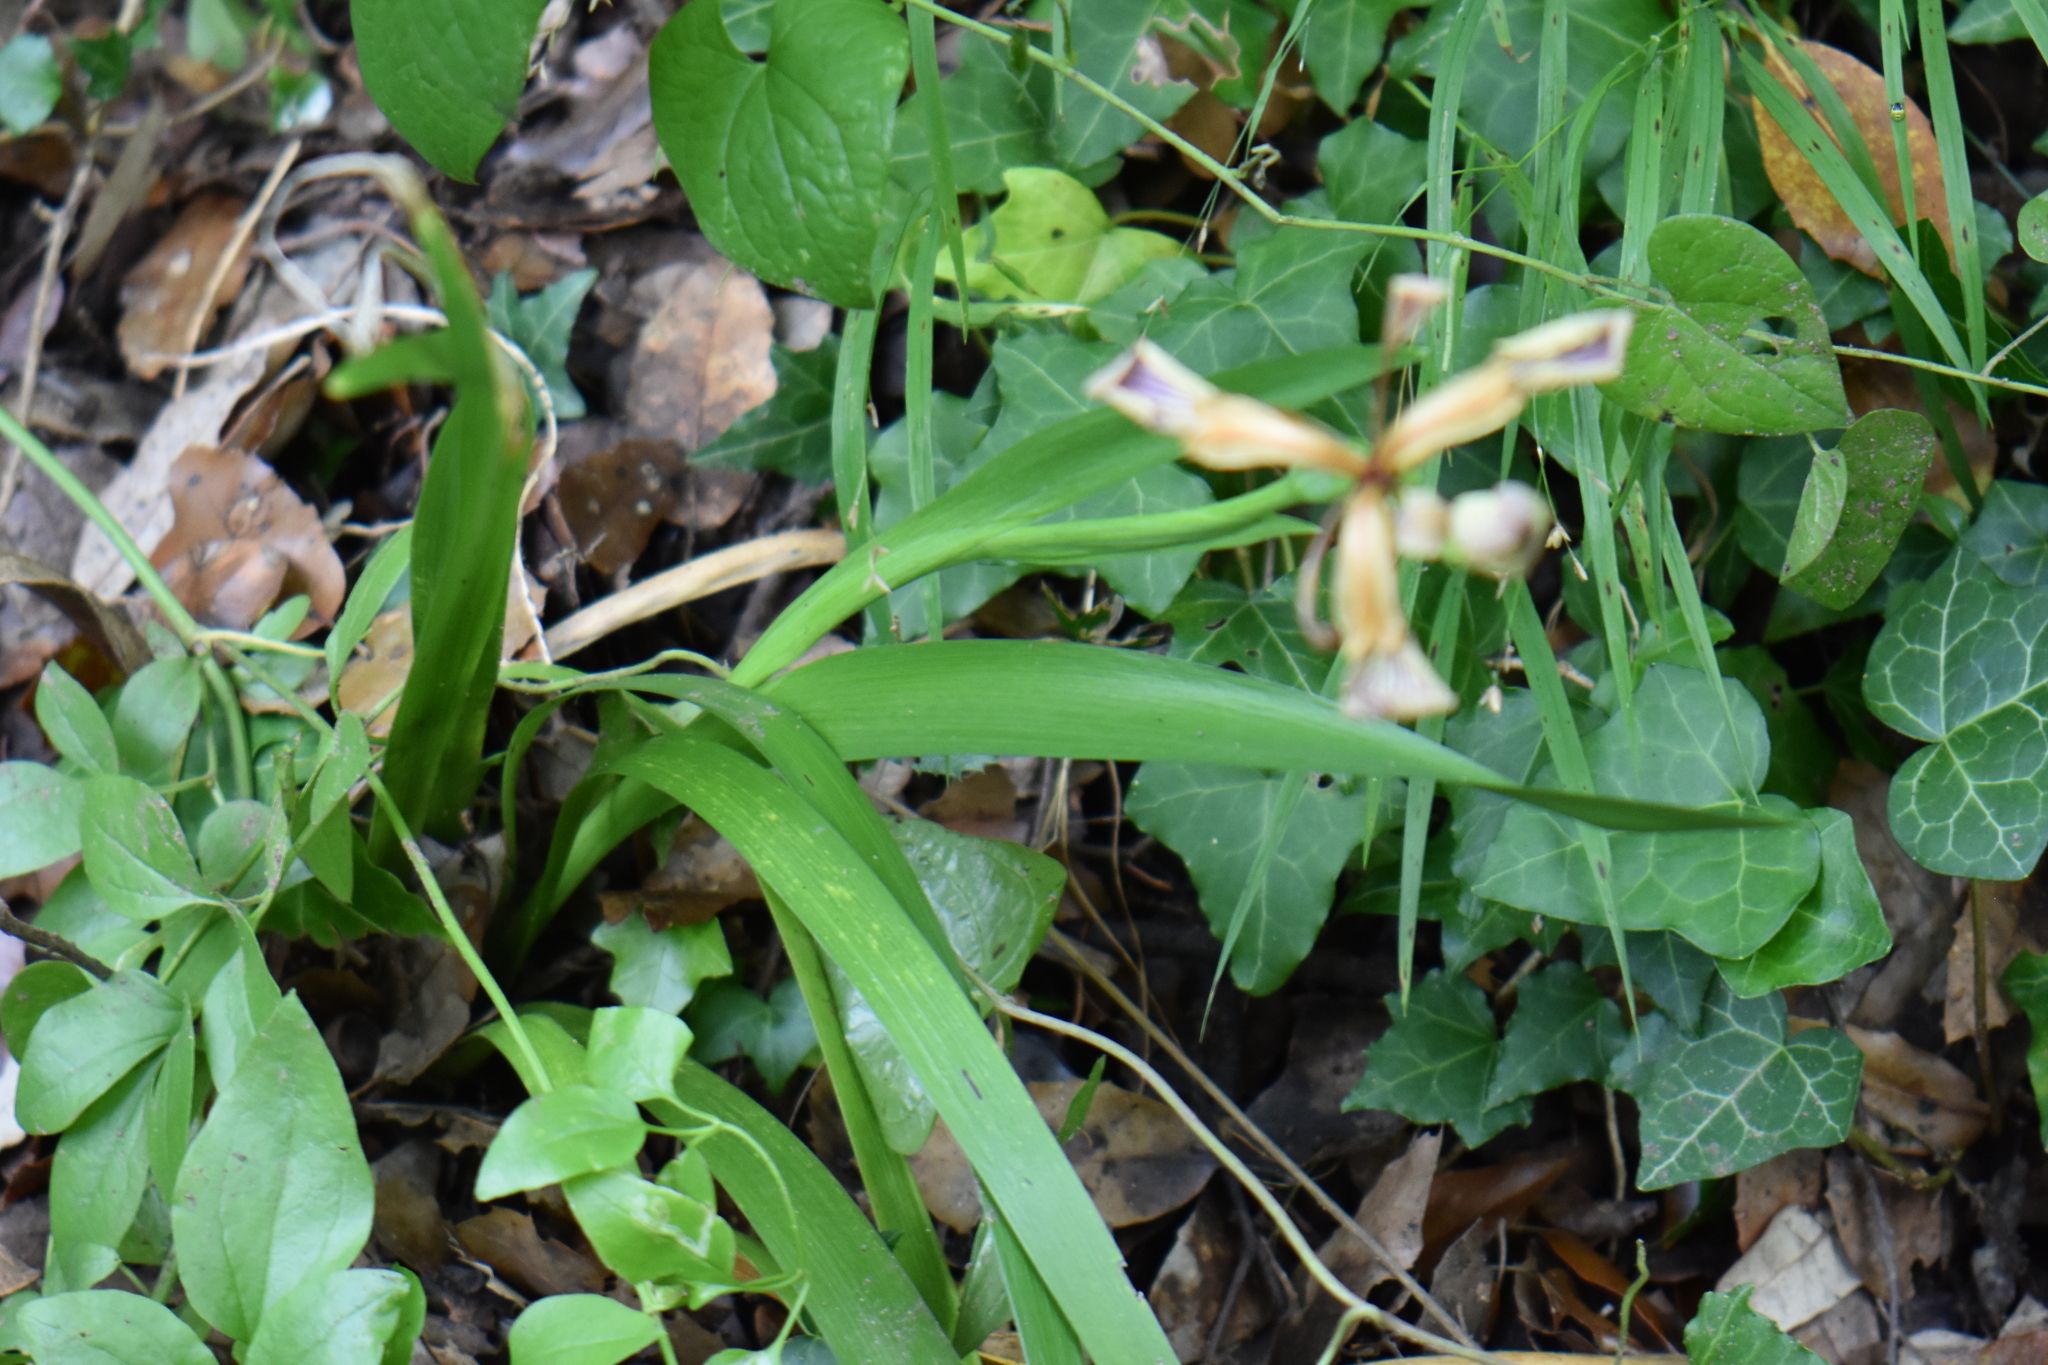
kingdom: Plantae
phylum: Tracheophyta
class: Liliopsida
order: Asparagales
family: Iridaceae
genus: Iris
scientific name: Iris foetidissima
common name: Stinking iris
